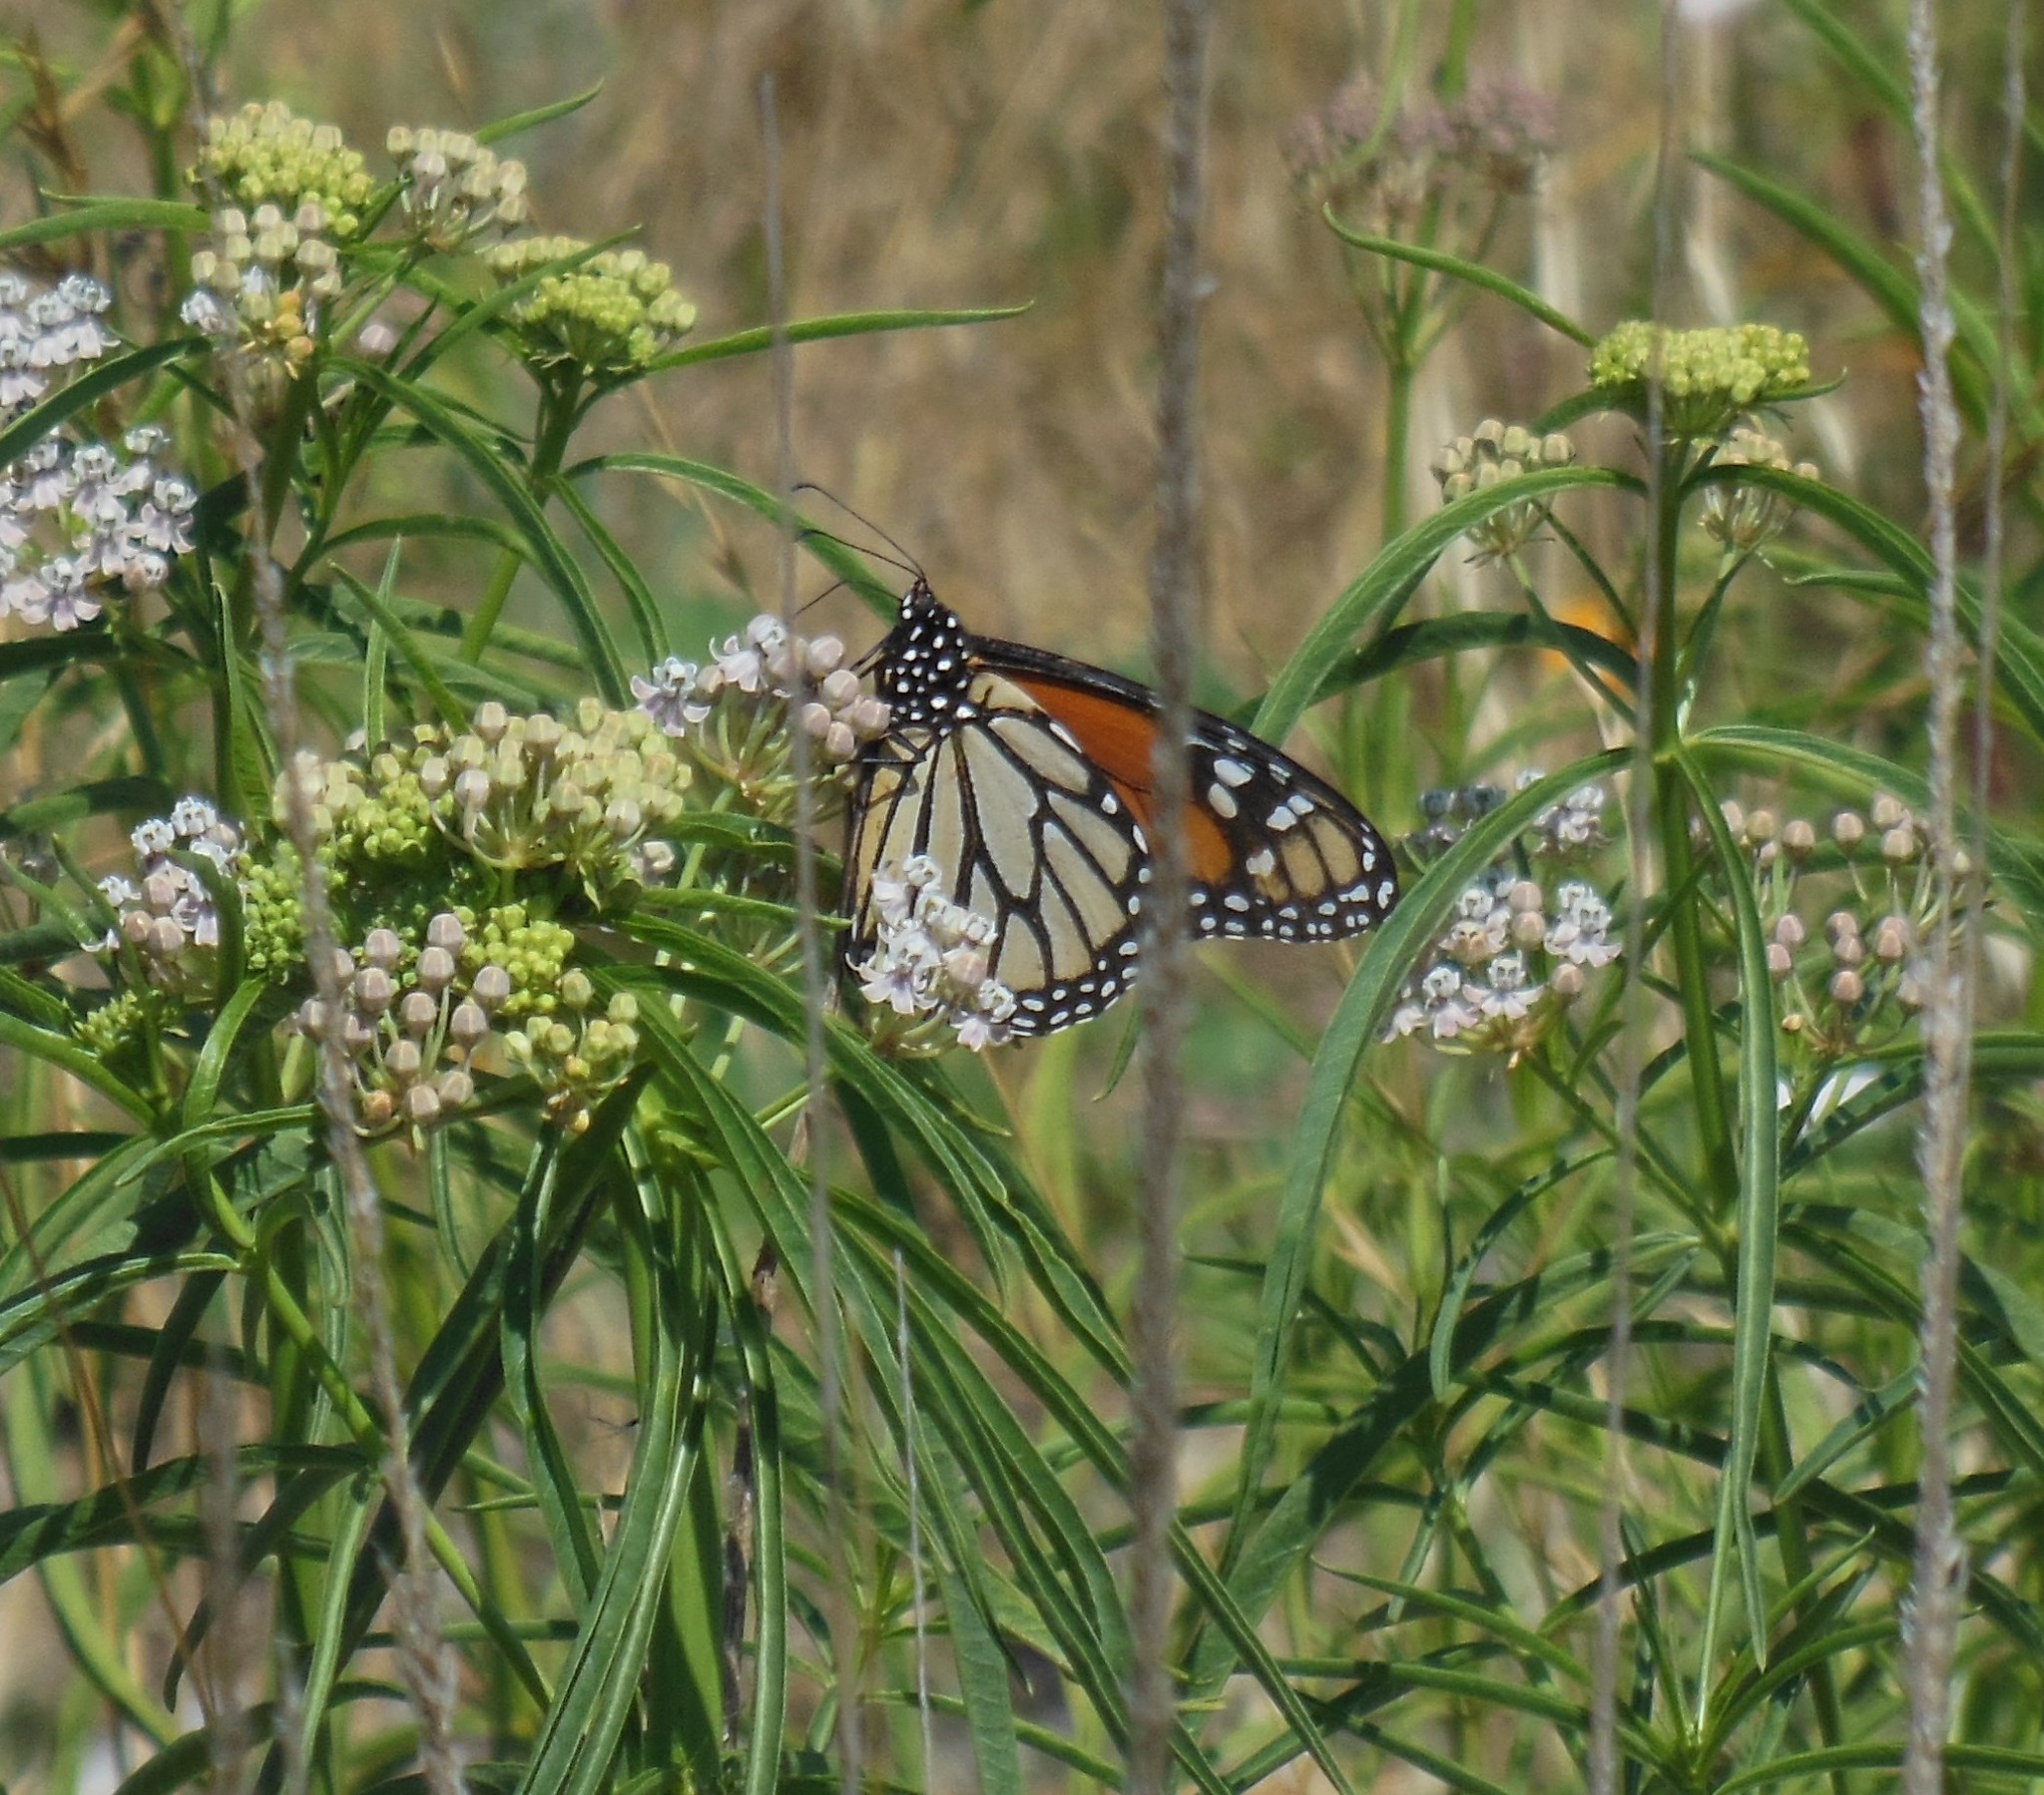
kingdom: Animalia
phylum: Arthropoda
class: Insecta
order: Lepidoptera
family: Nymphalidae
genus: Danaus
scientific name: Danaus plexippus
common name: Monarch
